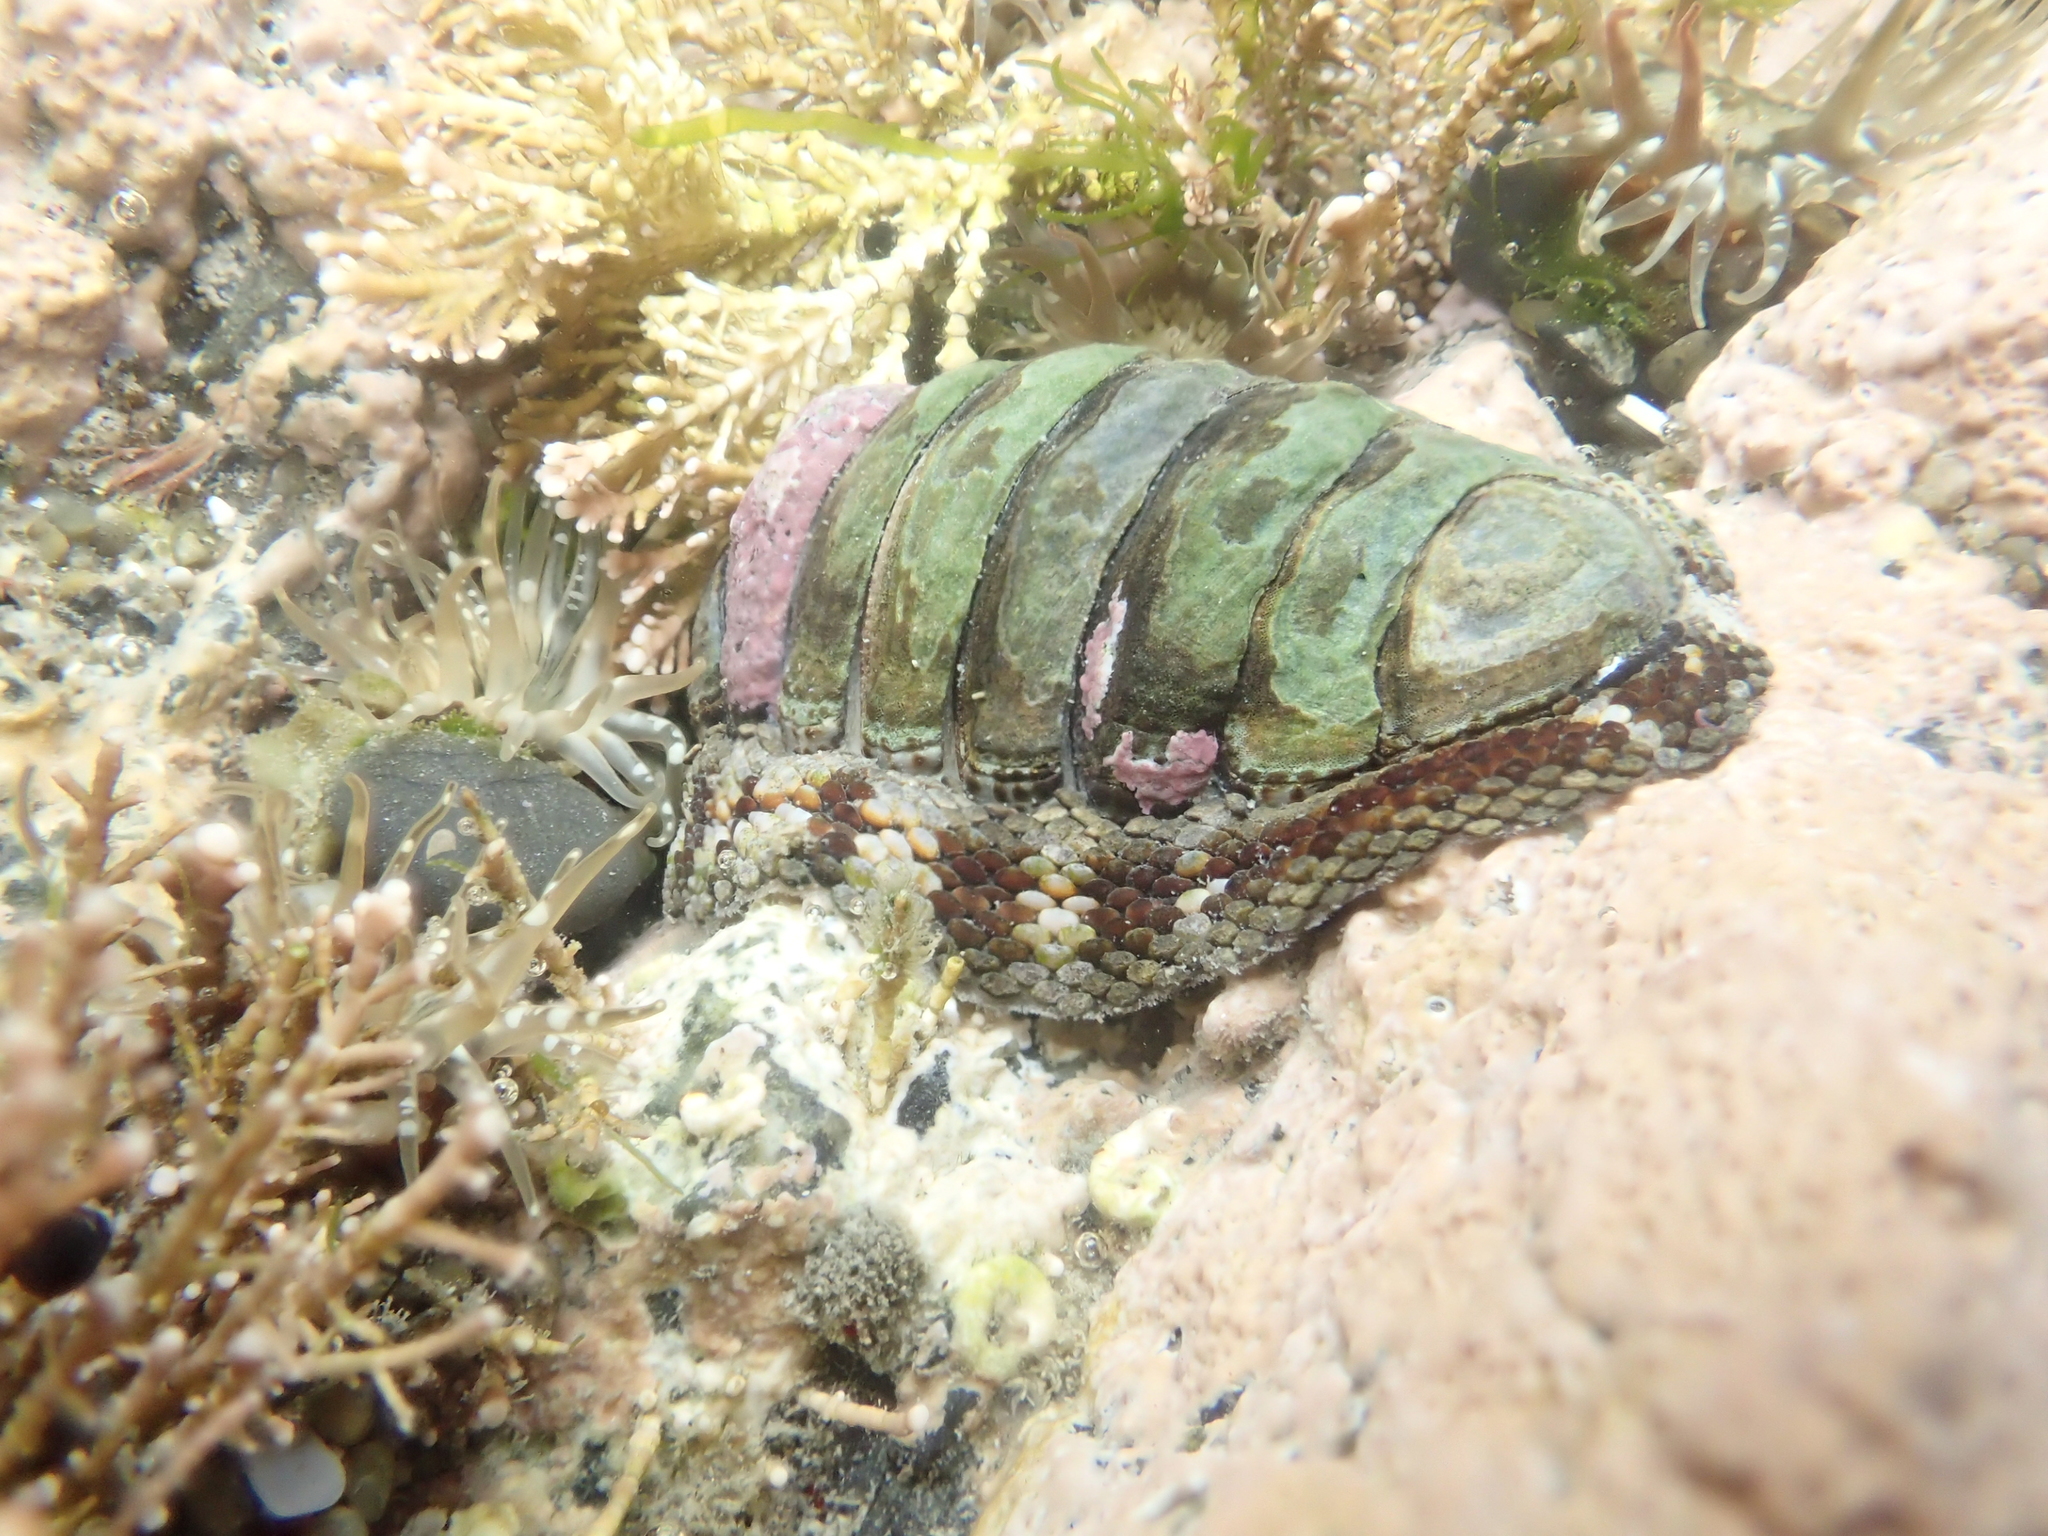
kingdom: Animalia
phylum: Mollusca
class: Polyplacophora
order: Chitonida
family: Chitonidae
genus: Sypharochiton
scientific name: Sypharochiton pelliserpentis
